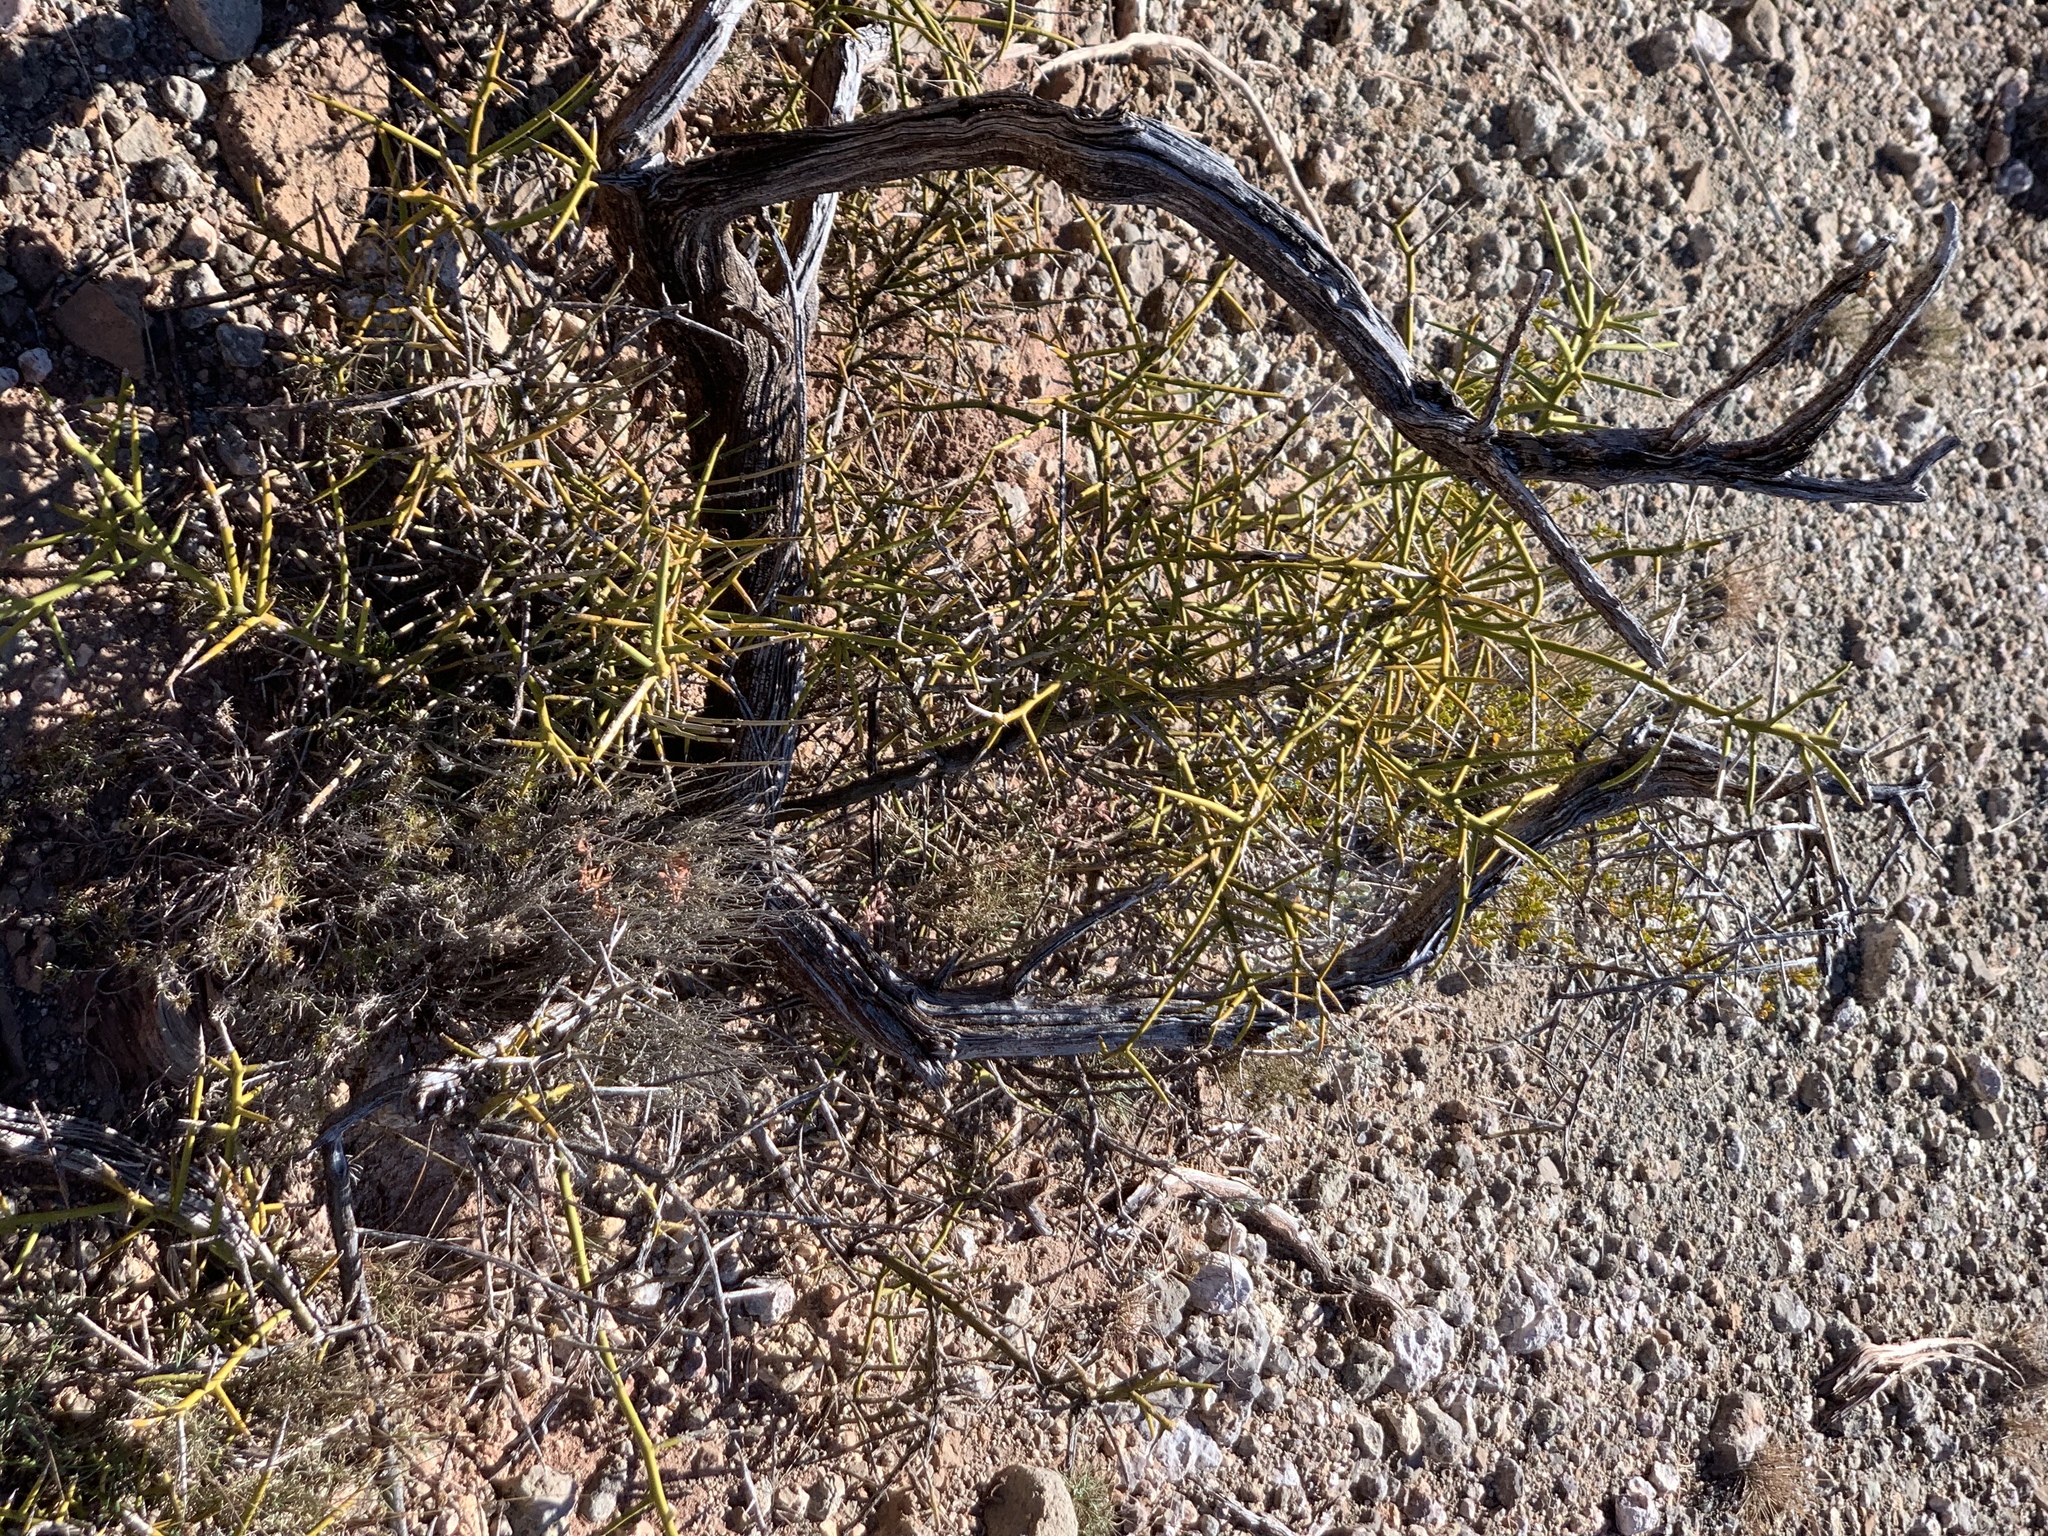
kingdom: Plantae
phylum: Tracheophyta
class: Magnoliopsida
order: Brassicales
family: Koeberliniaceae
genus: Koeberlinia
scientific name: Koeberlinia spinosa
